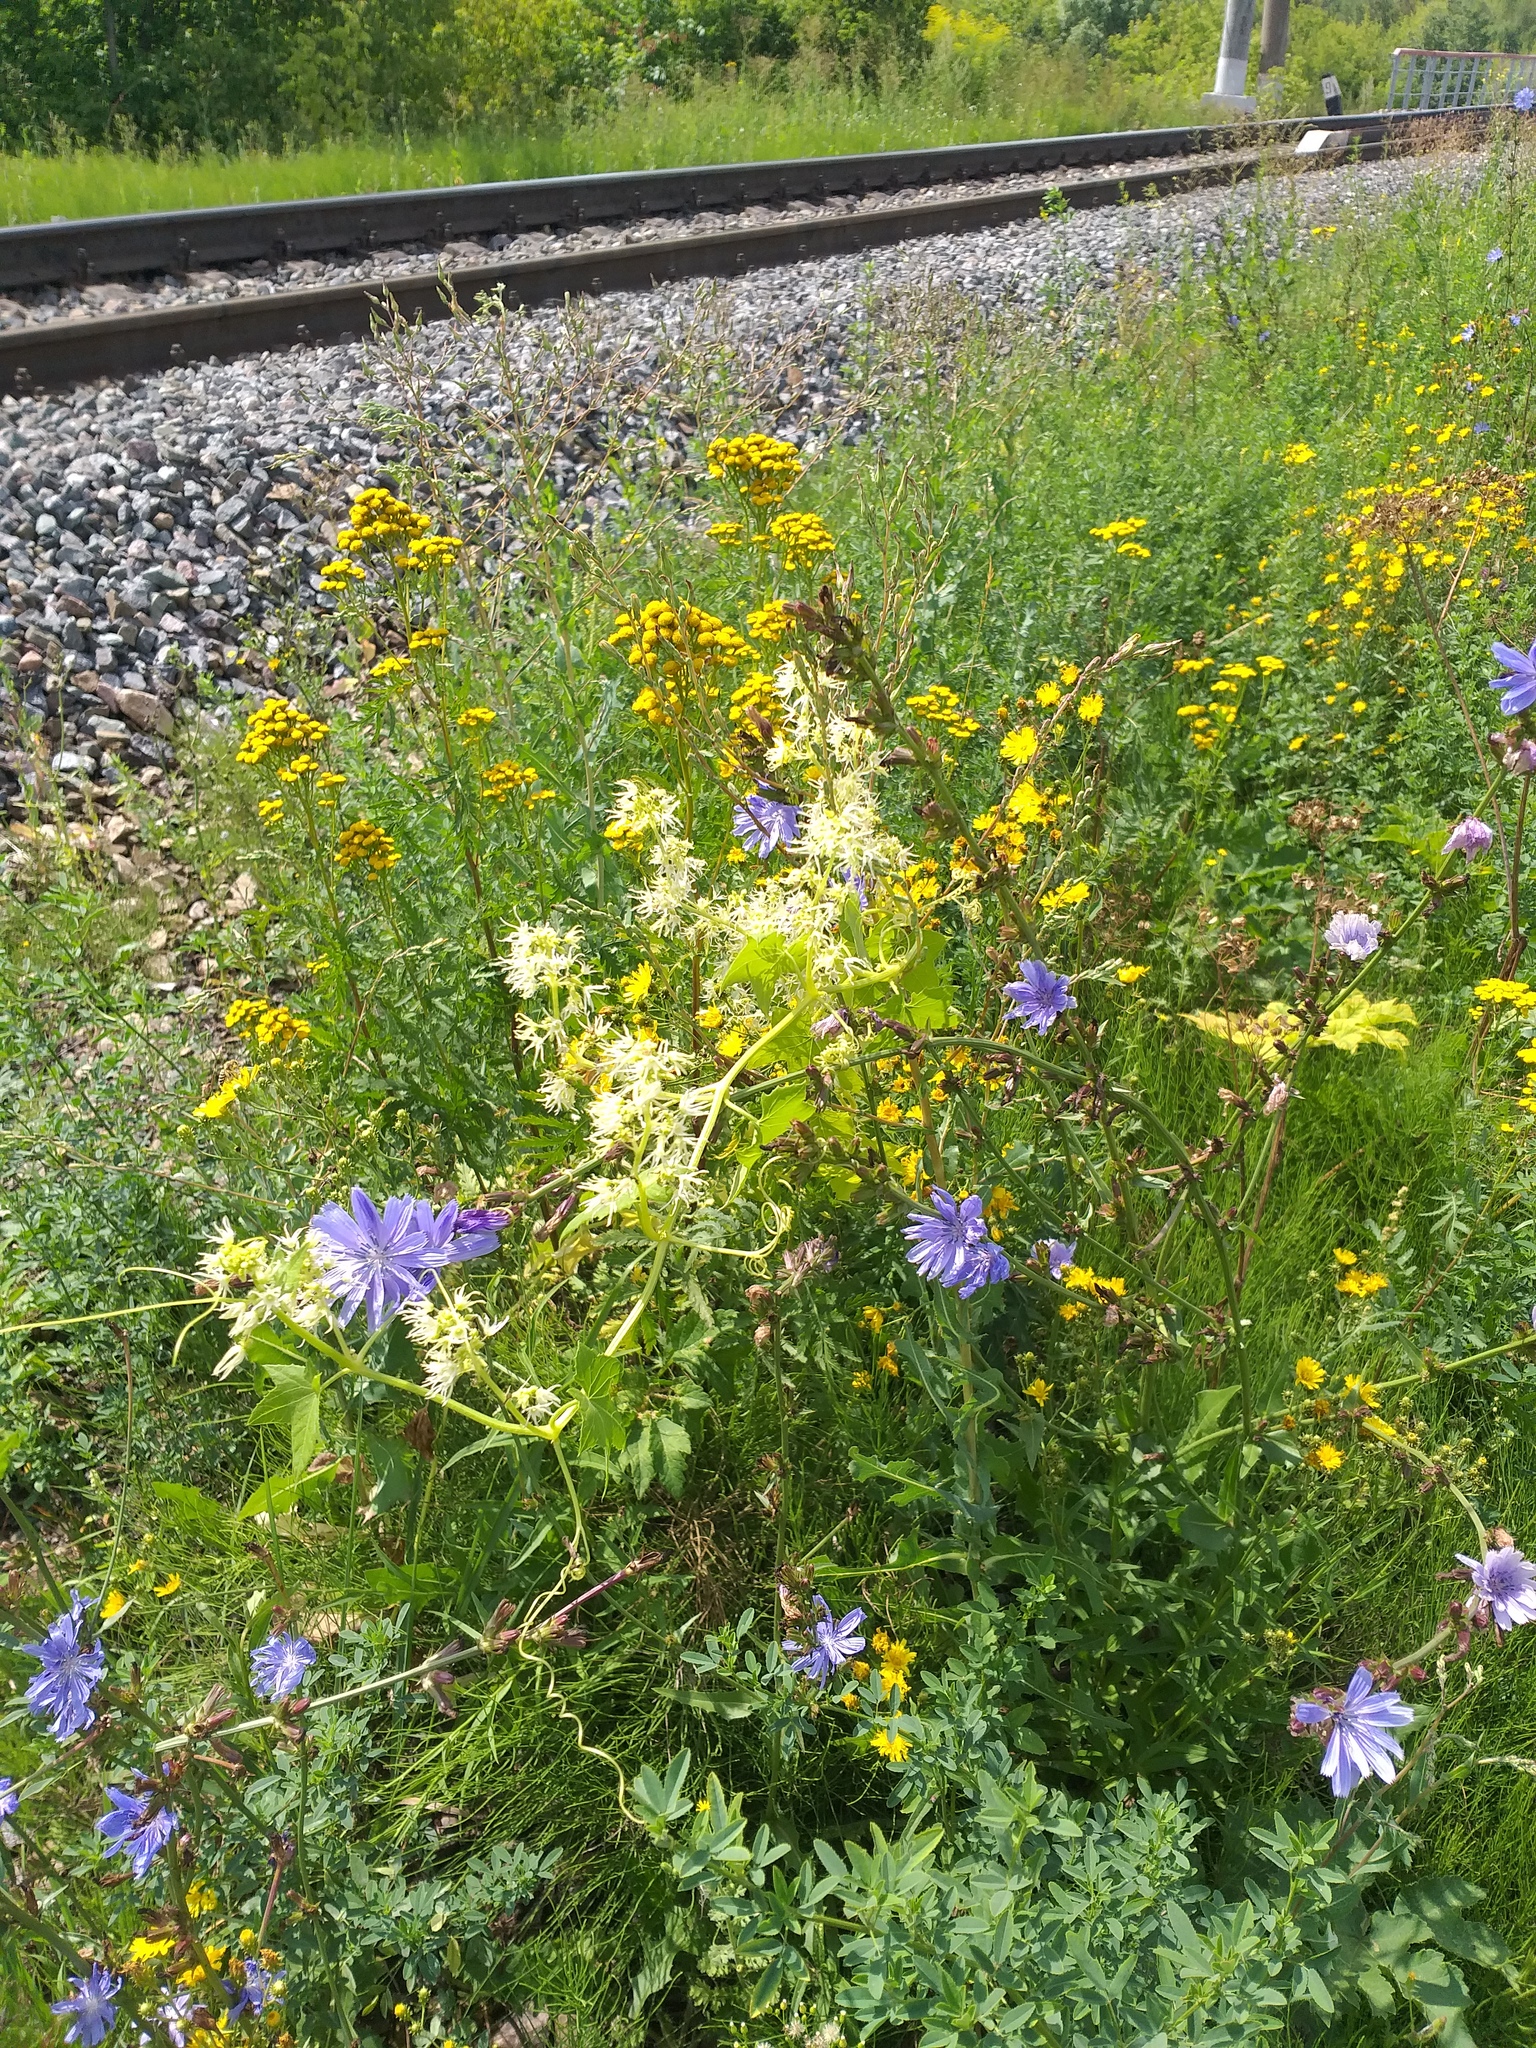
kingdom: Plantae
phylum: Tracheophyta
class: Magnoliopsida
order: Cucurbitales
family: Cucurbitaceae
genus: Echinocystis
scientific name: Echinocystis lobata
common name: Wild cucumber
